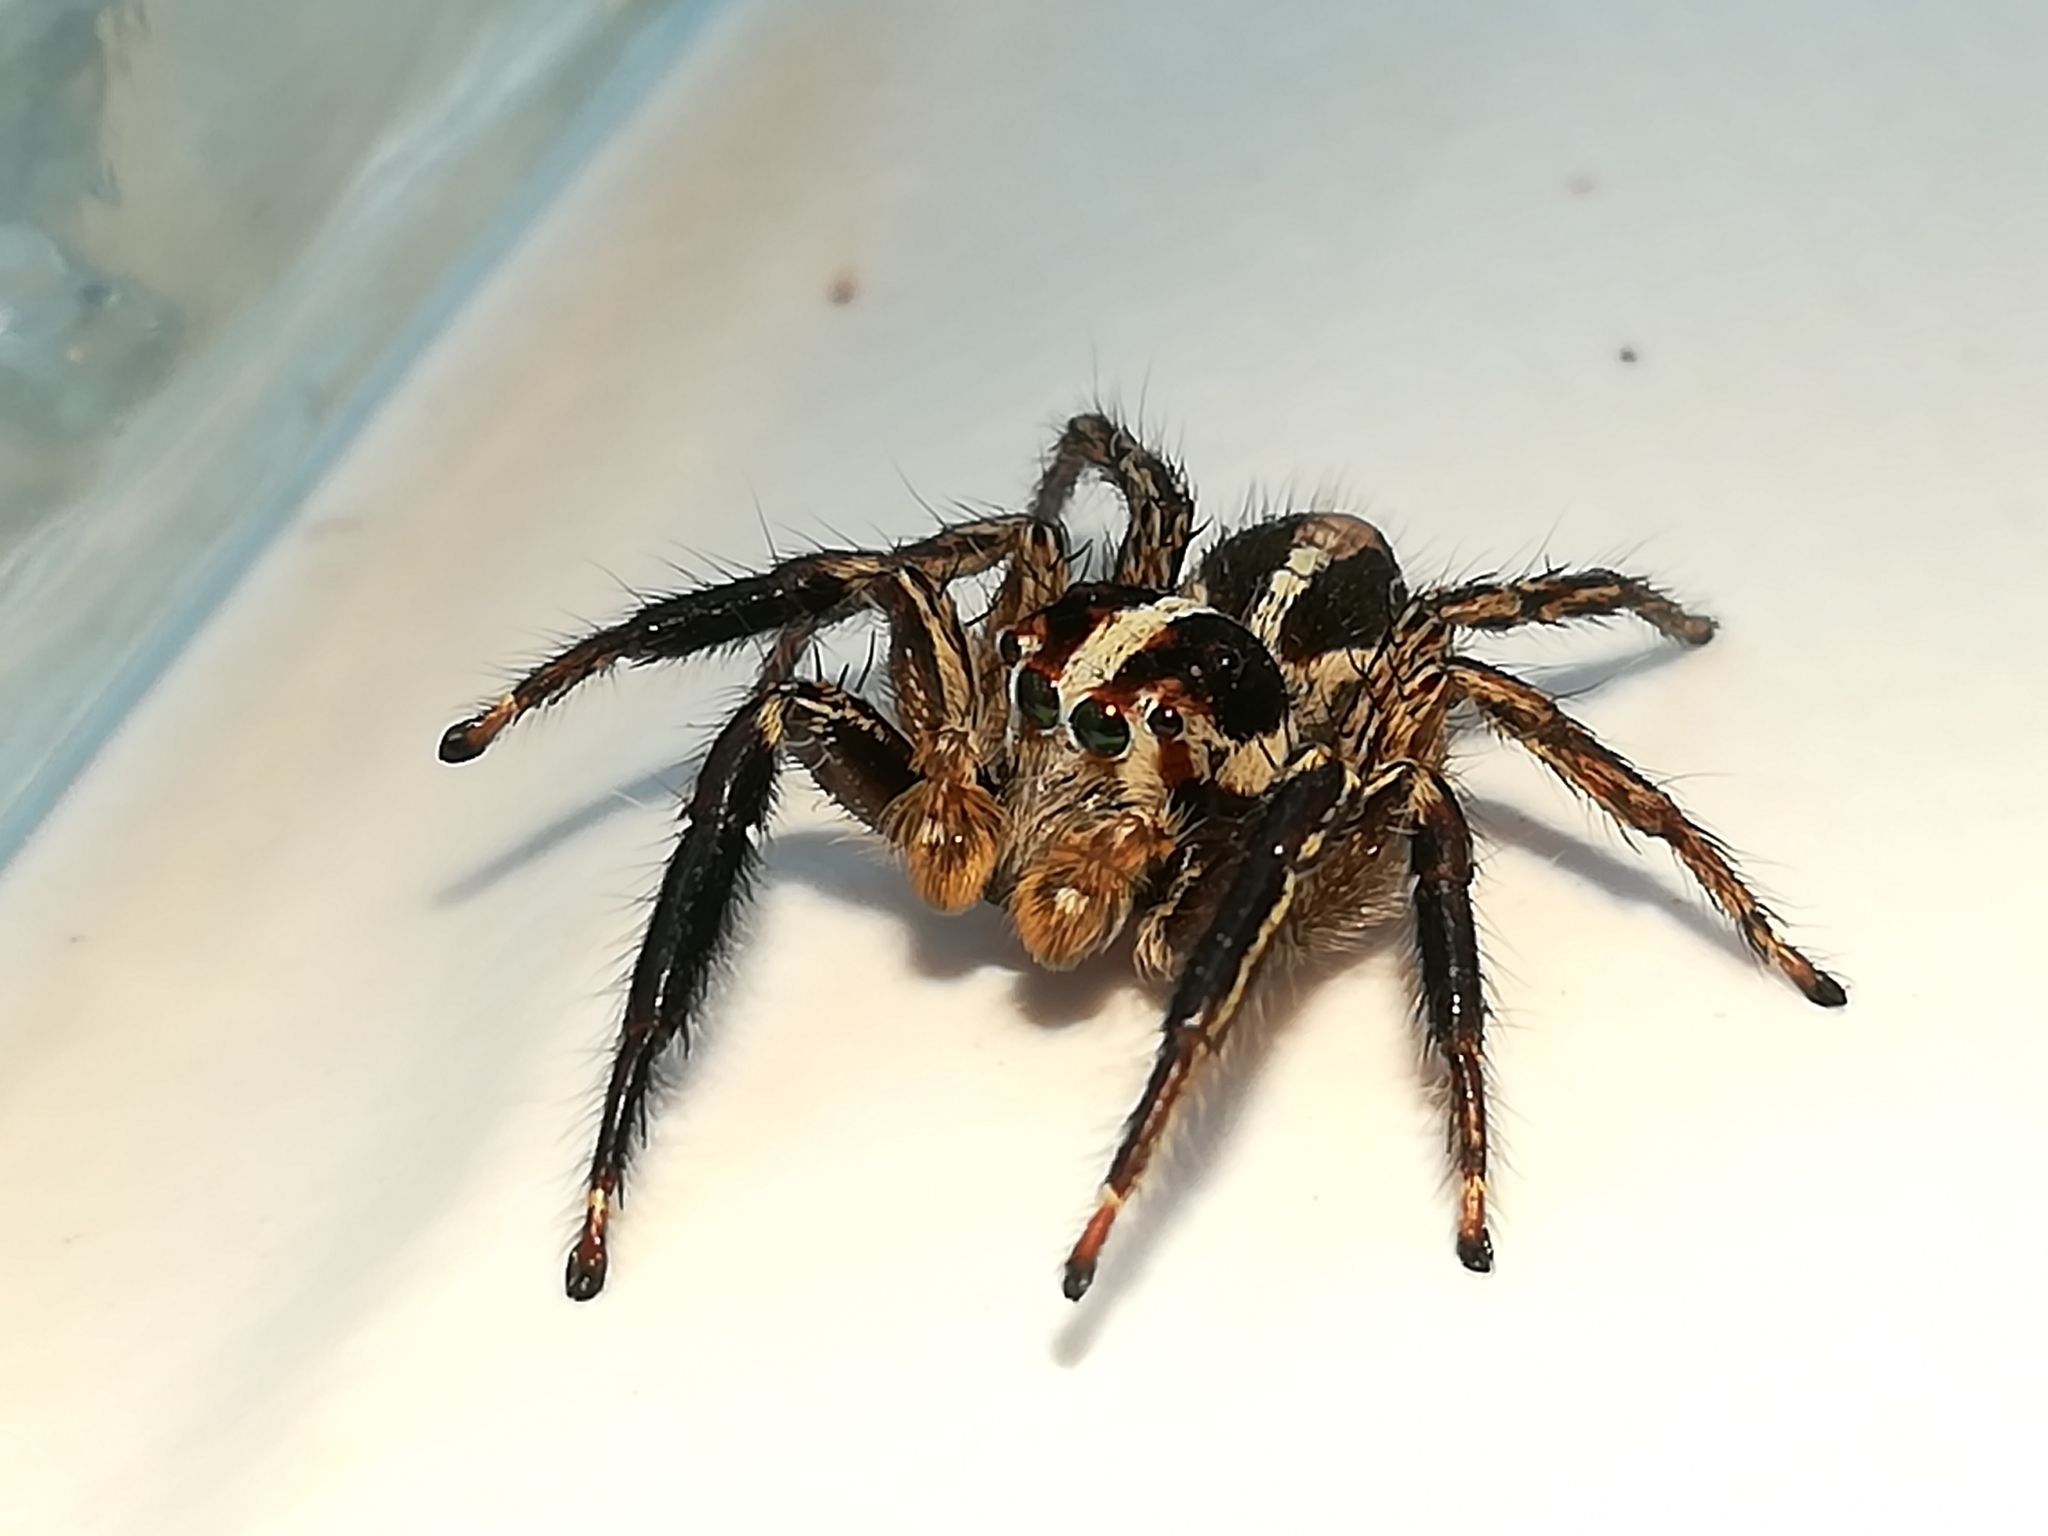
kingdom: Animalia
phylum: Arthropoda
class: Arachnida
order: Araneae
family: Salticidae
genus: Plexippus
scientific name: Plexippus paykulli
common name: Pantropical jumper
